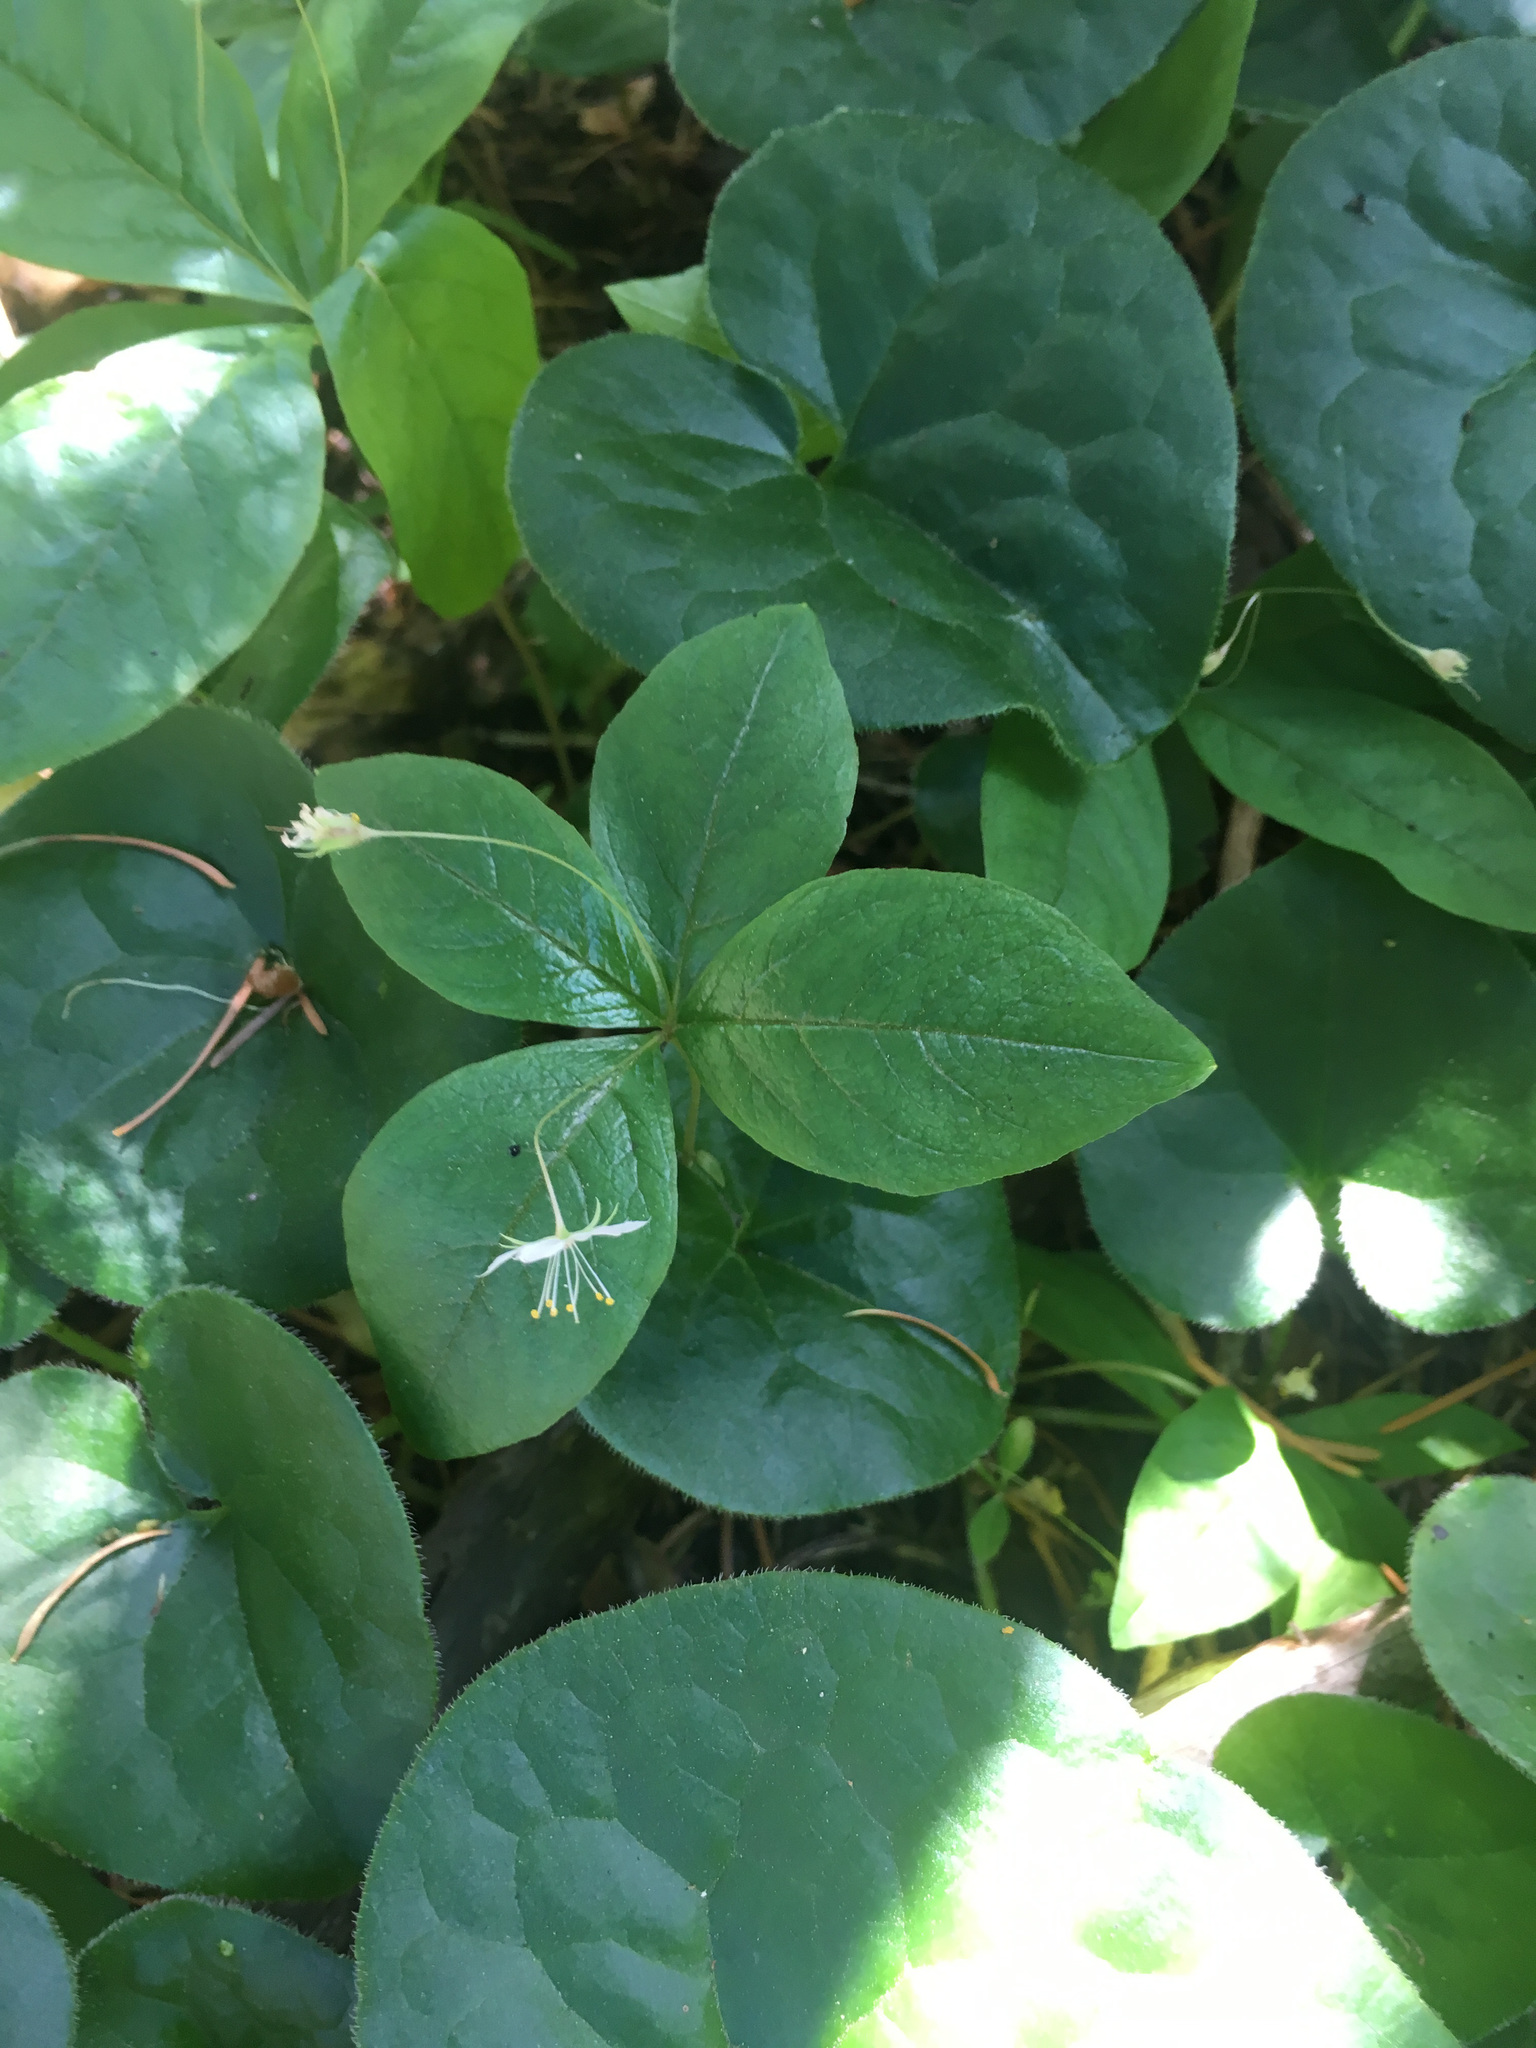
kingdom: Plantae
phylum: Tracheophyta
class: Magnoliopsida
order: Ericales
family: Primulaceae
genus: Lysimachia
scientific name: Lysimachia latifolia
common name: Pacific starflower
